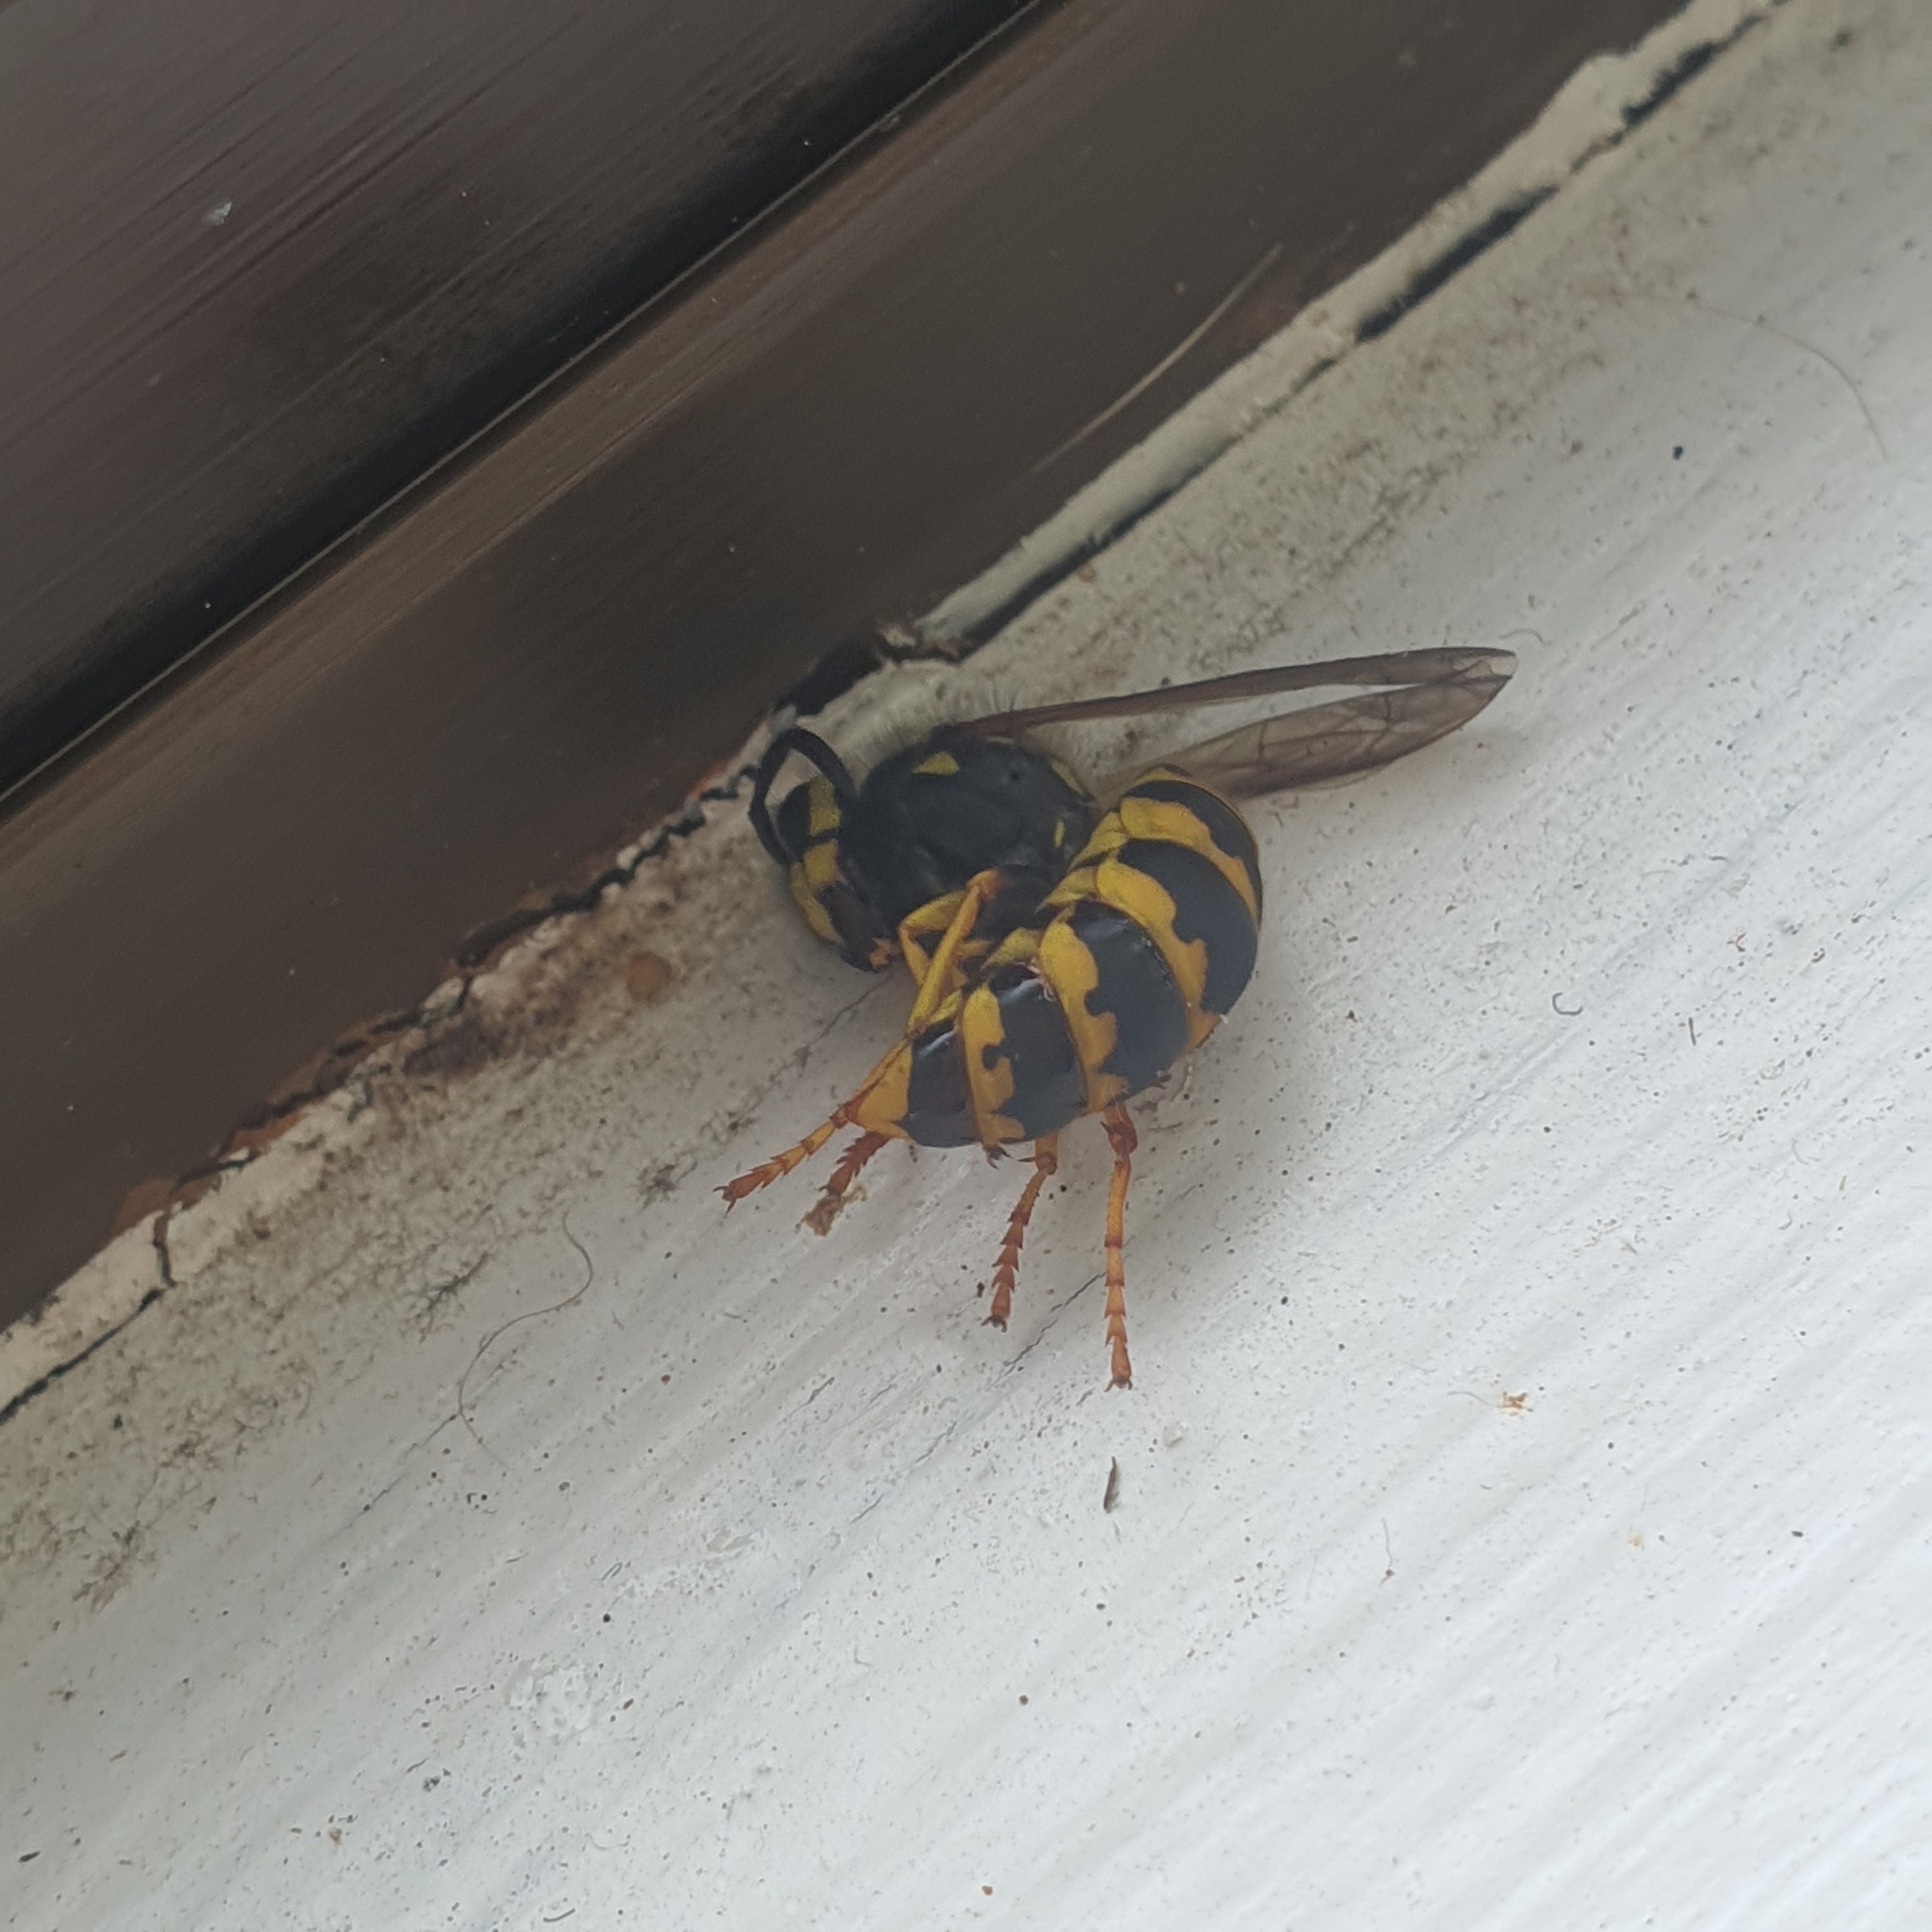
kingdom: Animalia
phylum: Arthropoda
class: Insecta
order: Hymenoptera
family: Vespidae
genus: Vespula
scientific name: Vespula germanica
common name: German wasp
